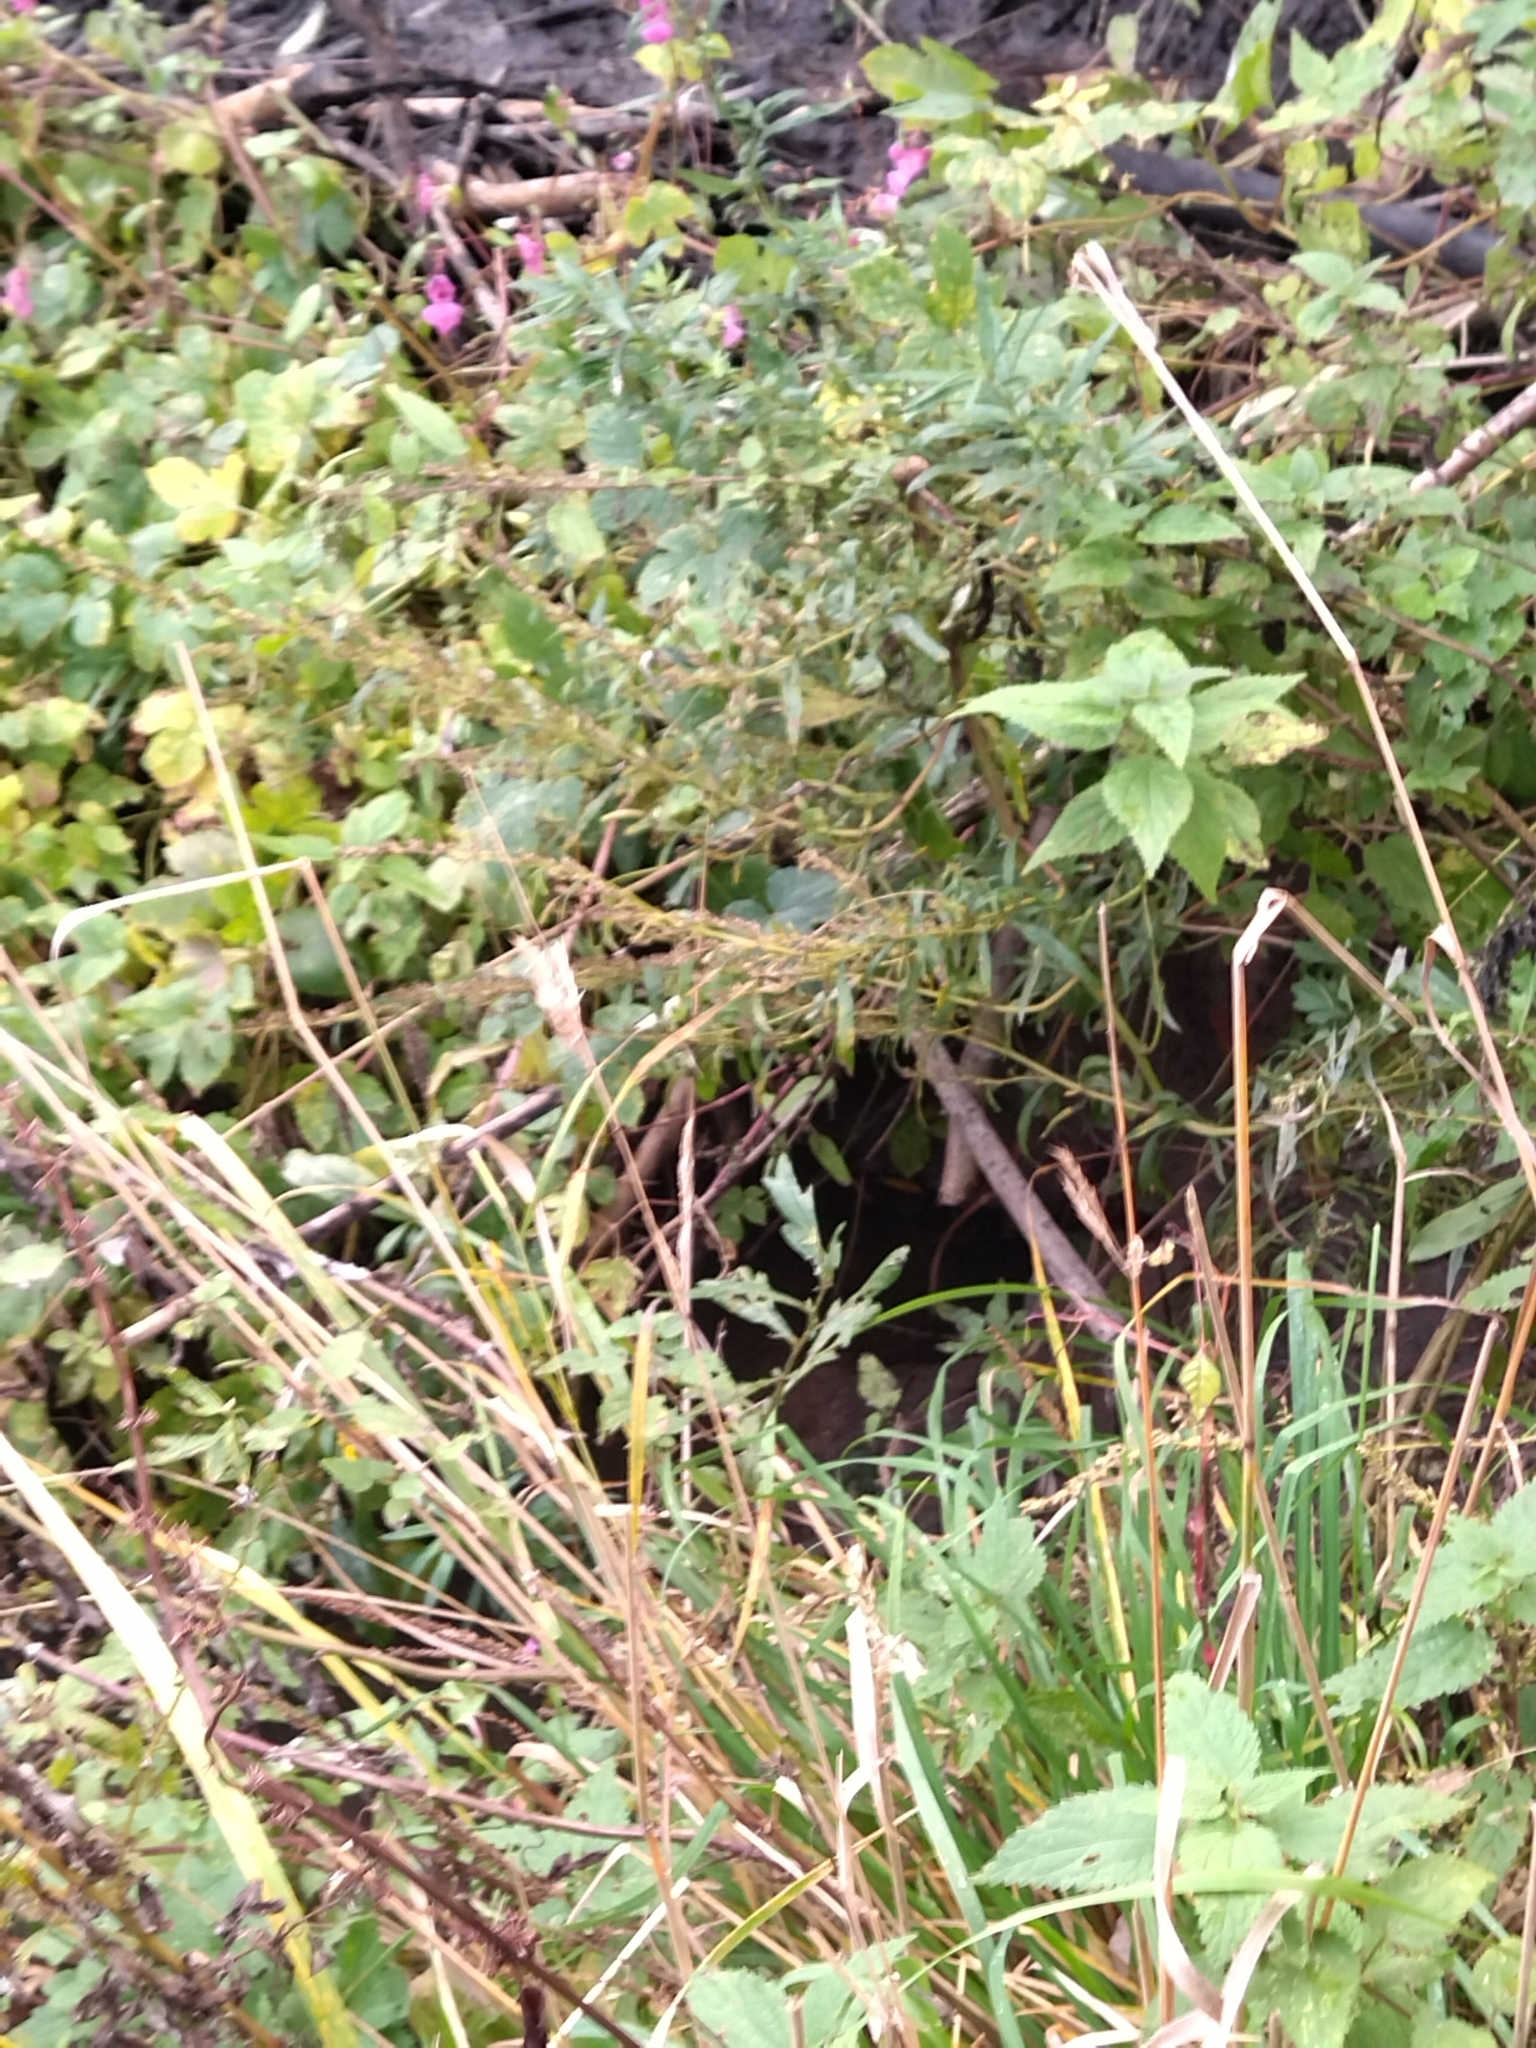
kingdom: Animalia
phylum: Chordata
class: Mammalia
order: Rodentia
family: Castoridae
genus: Castor
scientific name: Castor fiber
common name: Eurasian beaver
